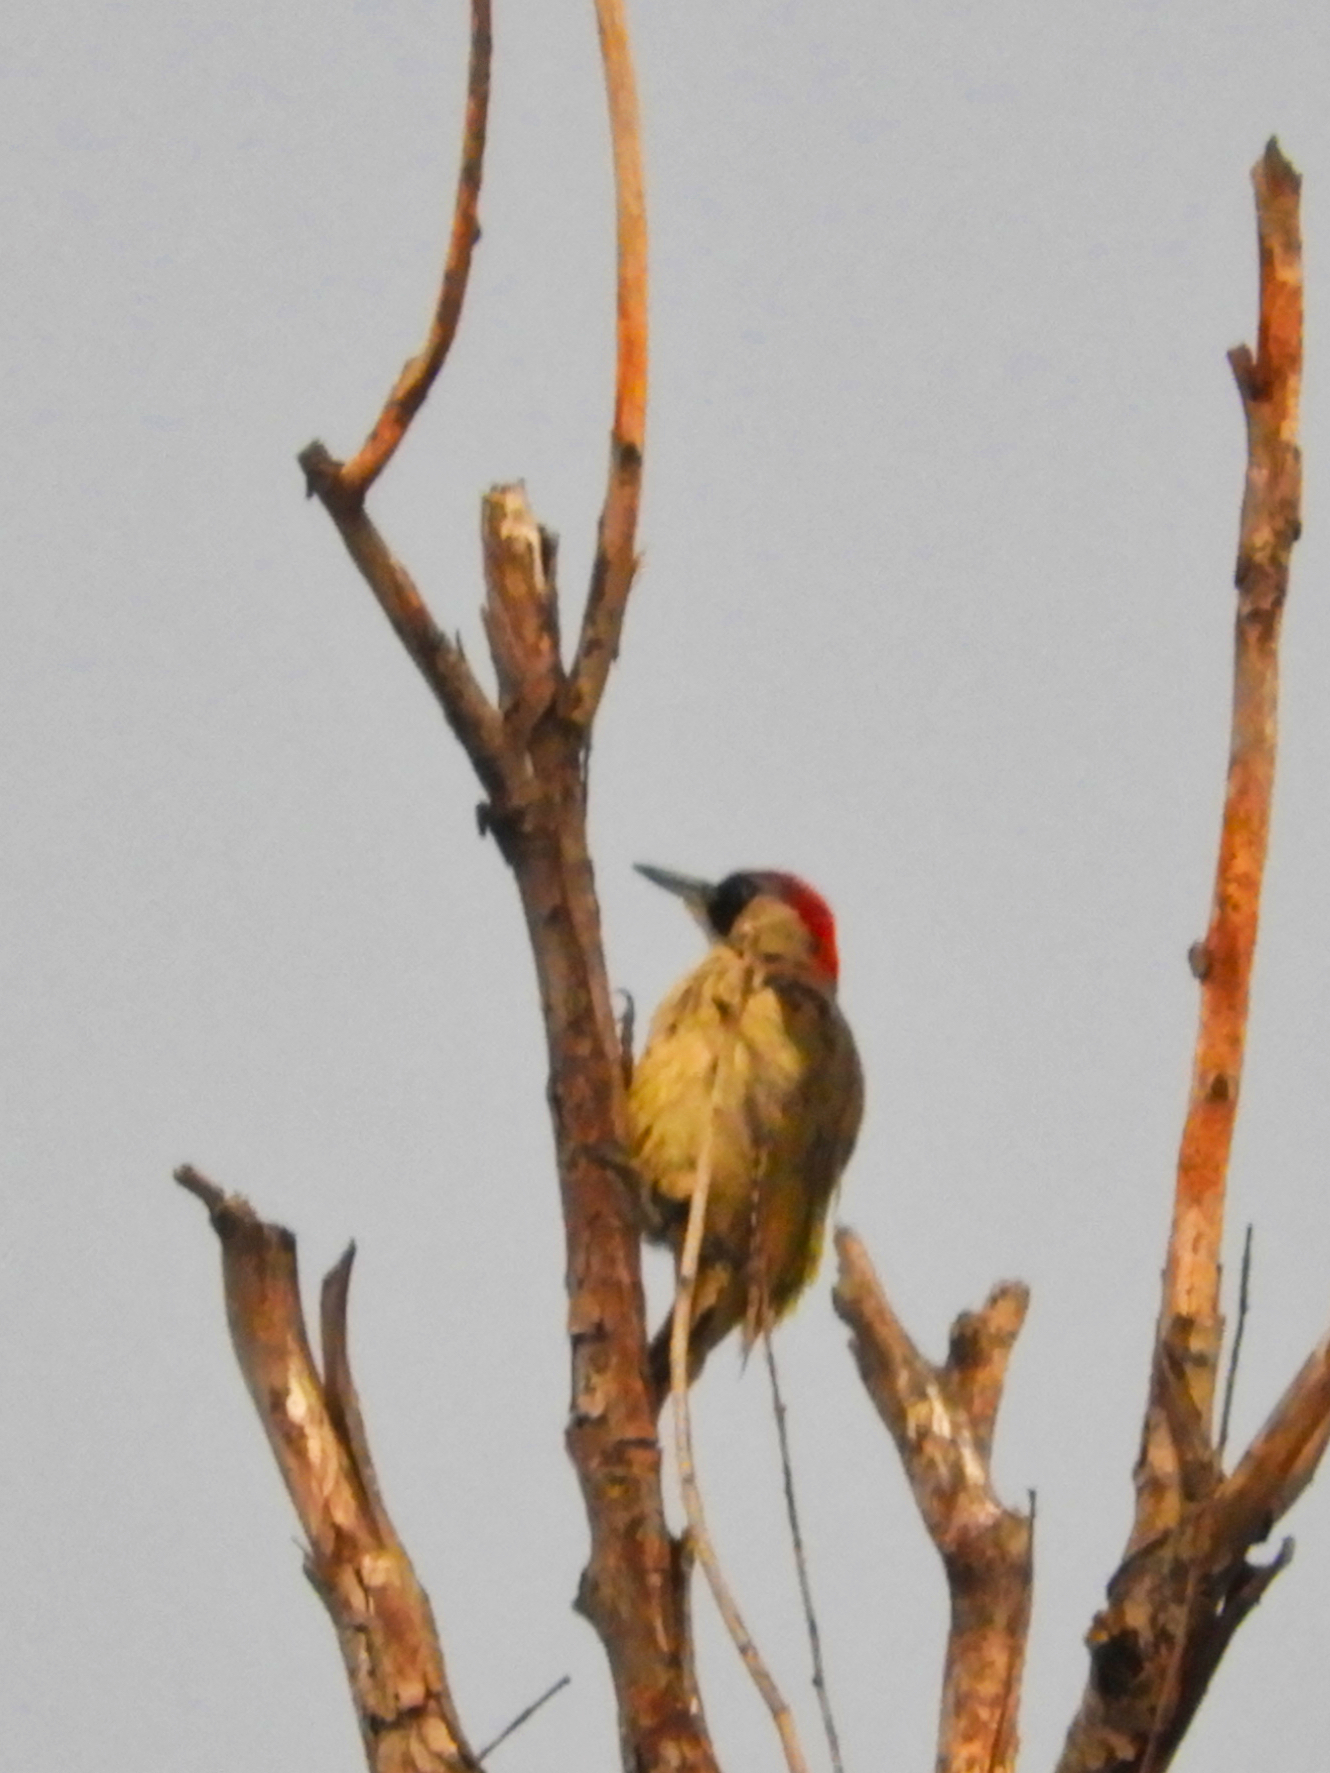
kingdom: Animalia
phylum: Chordata
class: Aves
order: Piciformes
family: Picidae
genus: Picus
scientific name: Picus viridis
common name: European green woodpecker
